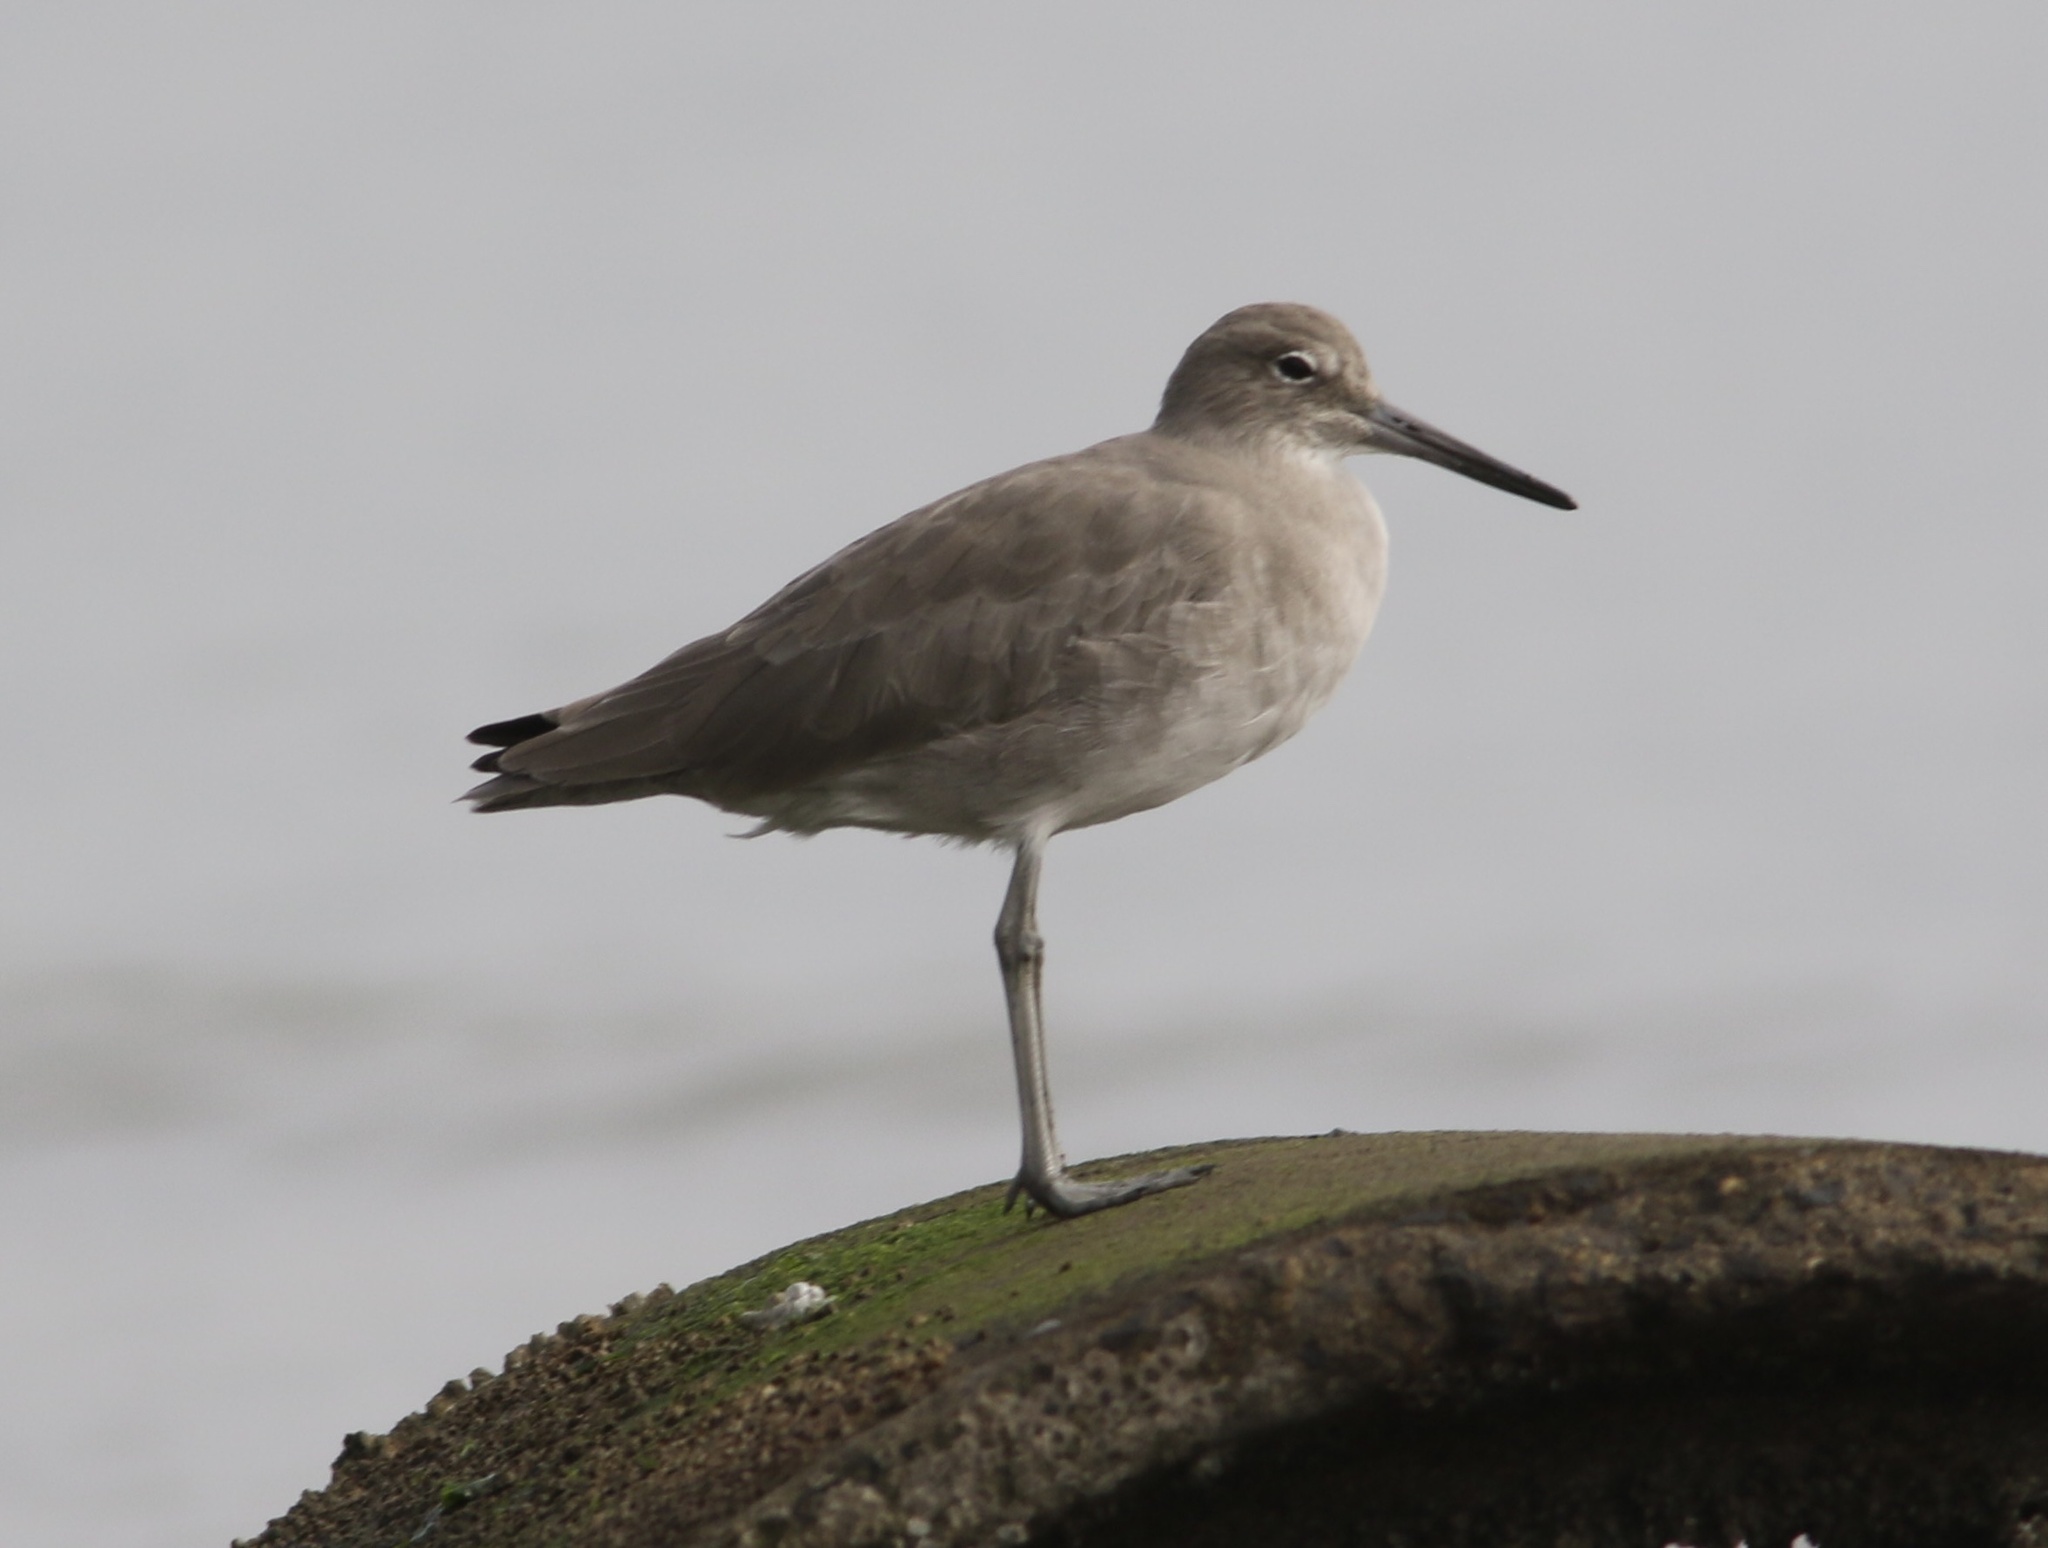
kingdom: Animalia
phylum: Chordata
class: Aves
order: Charadriiformes
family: Scolopacidae
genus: Tringa
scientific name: Tringa semipalmata
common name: Willet
